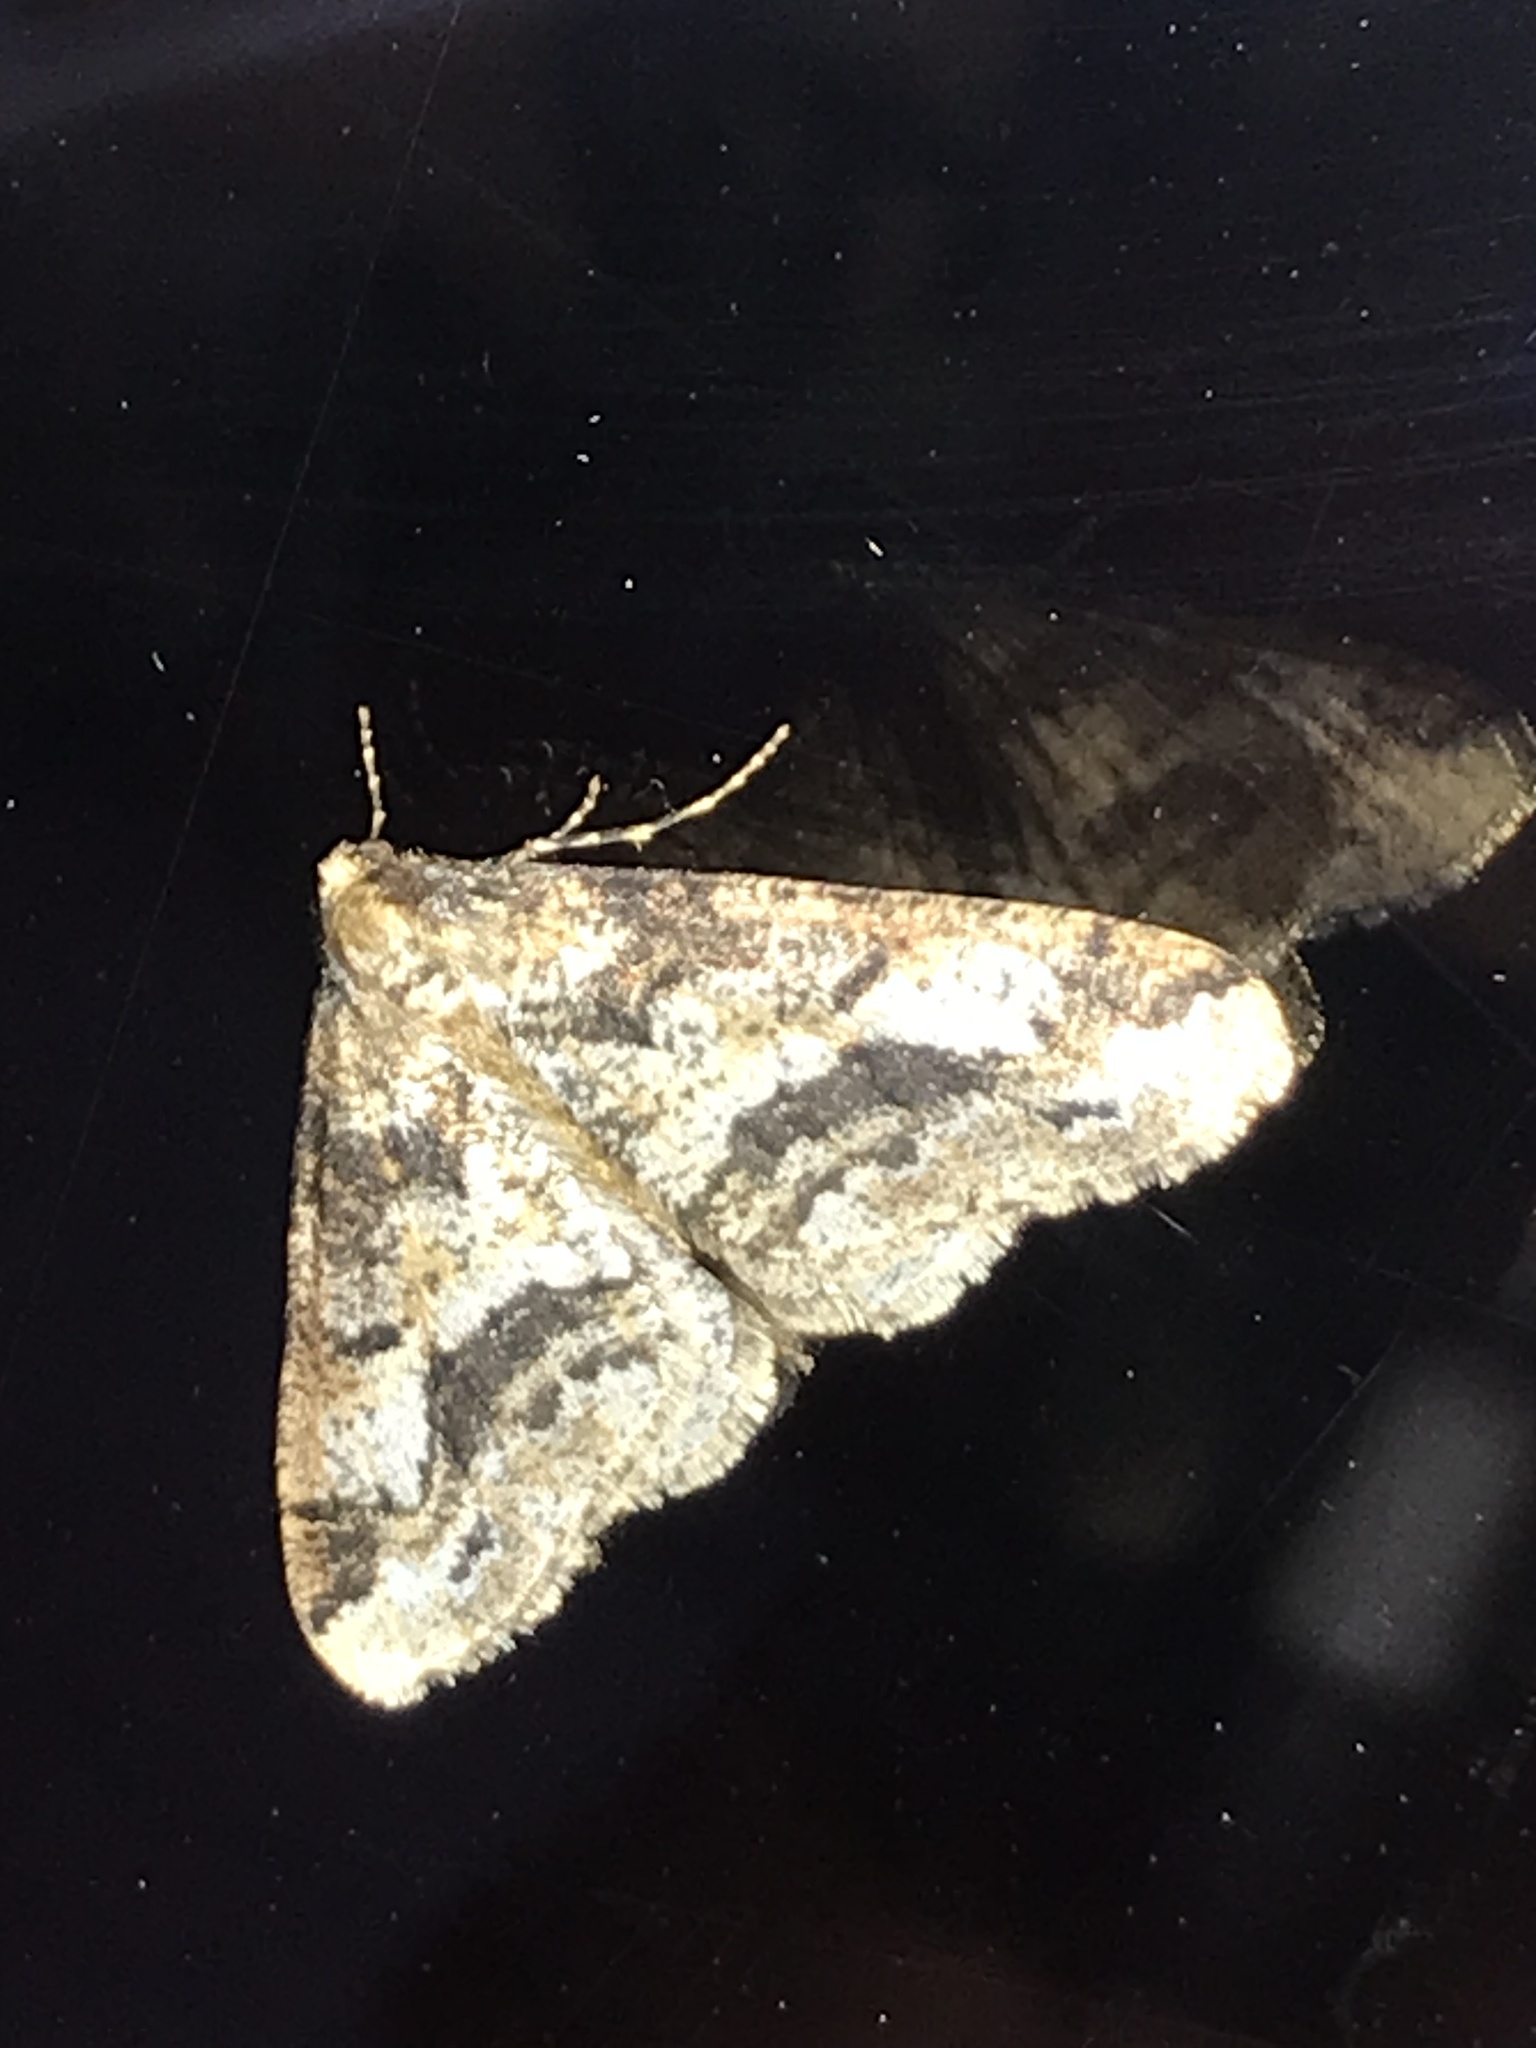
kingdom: Animalia
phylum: Arthropoda
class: Insecta
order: Lepidoptera
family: Geometridae
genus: Erannis
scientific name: Erannis vancouverensis
